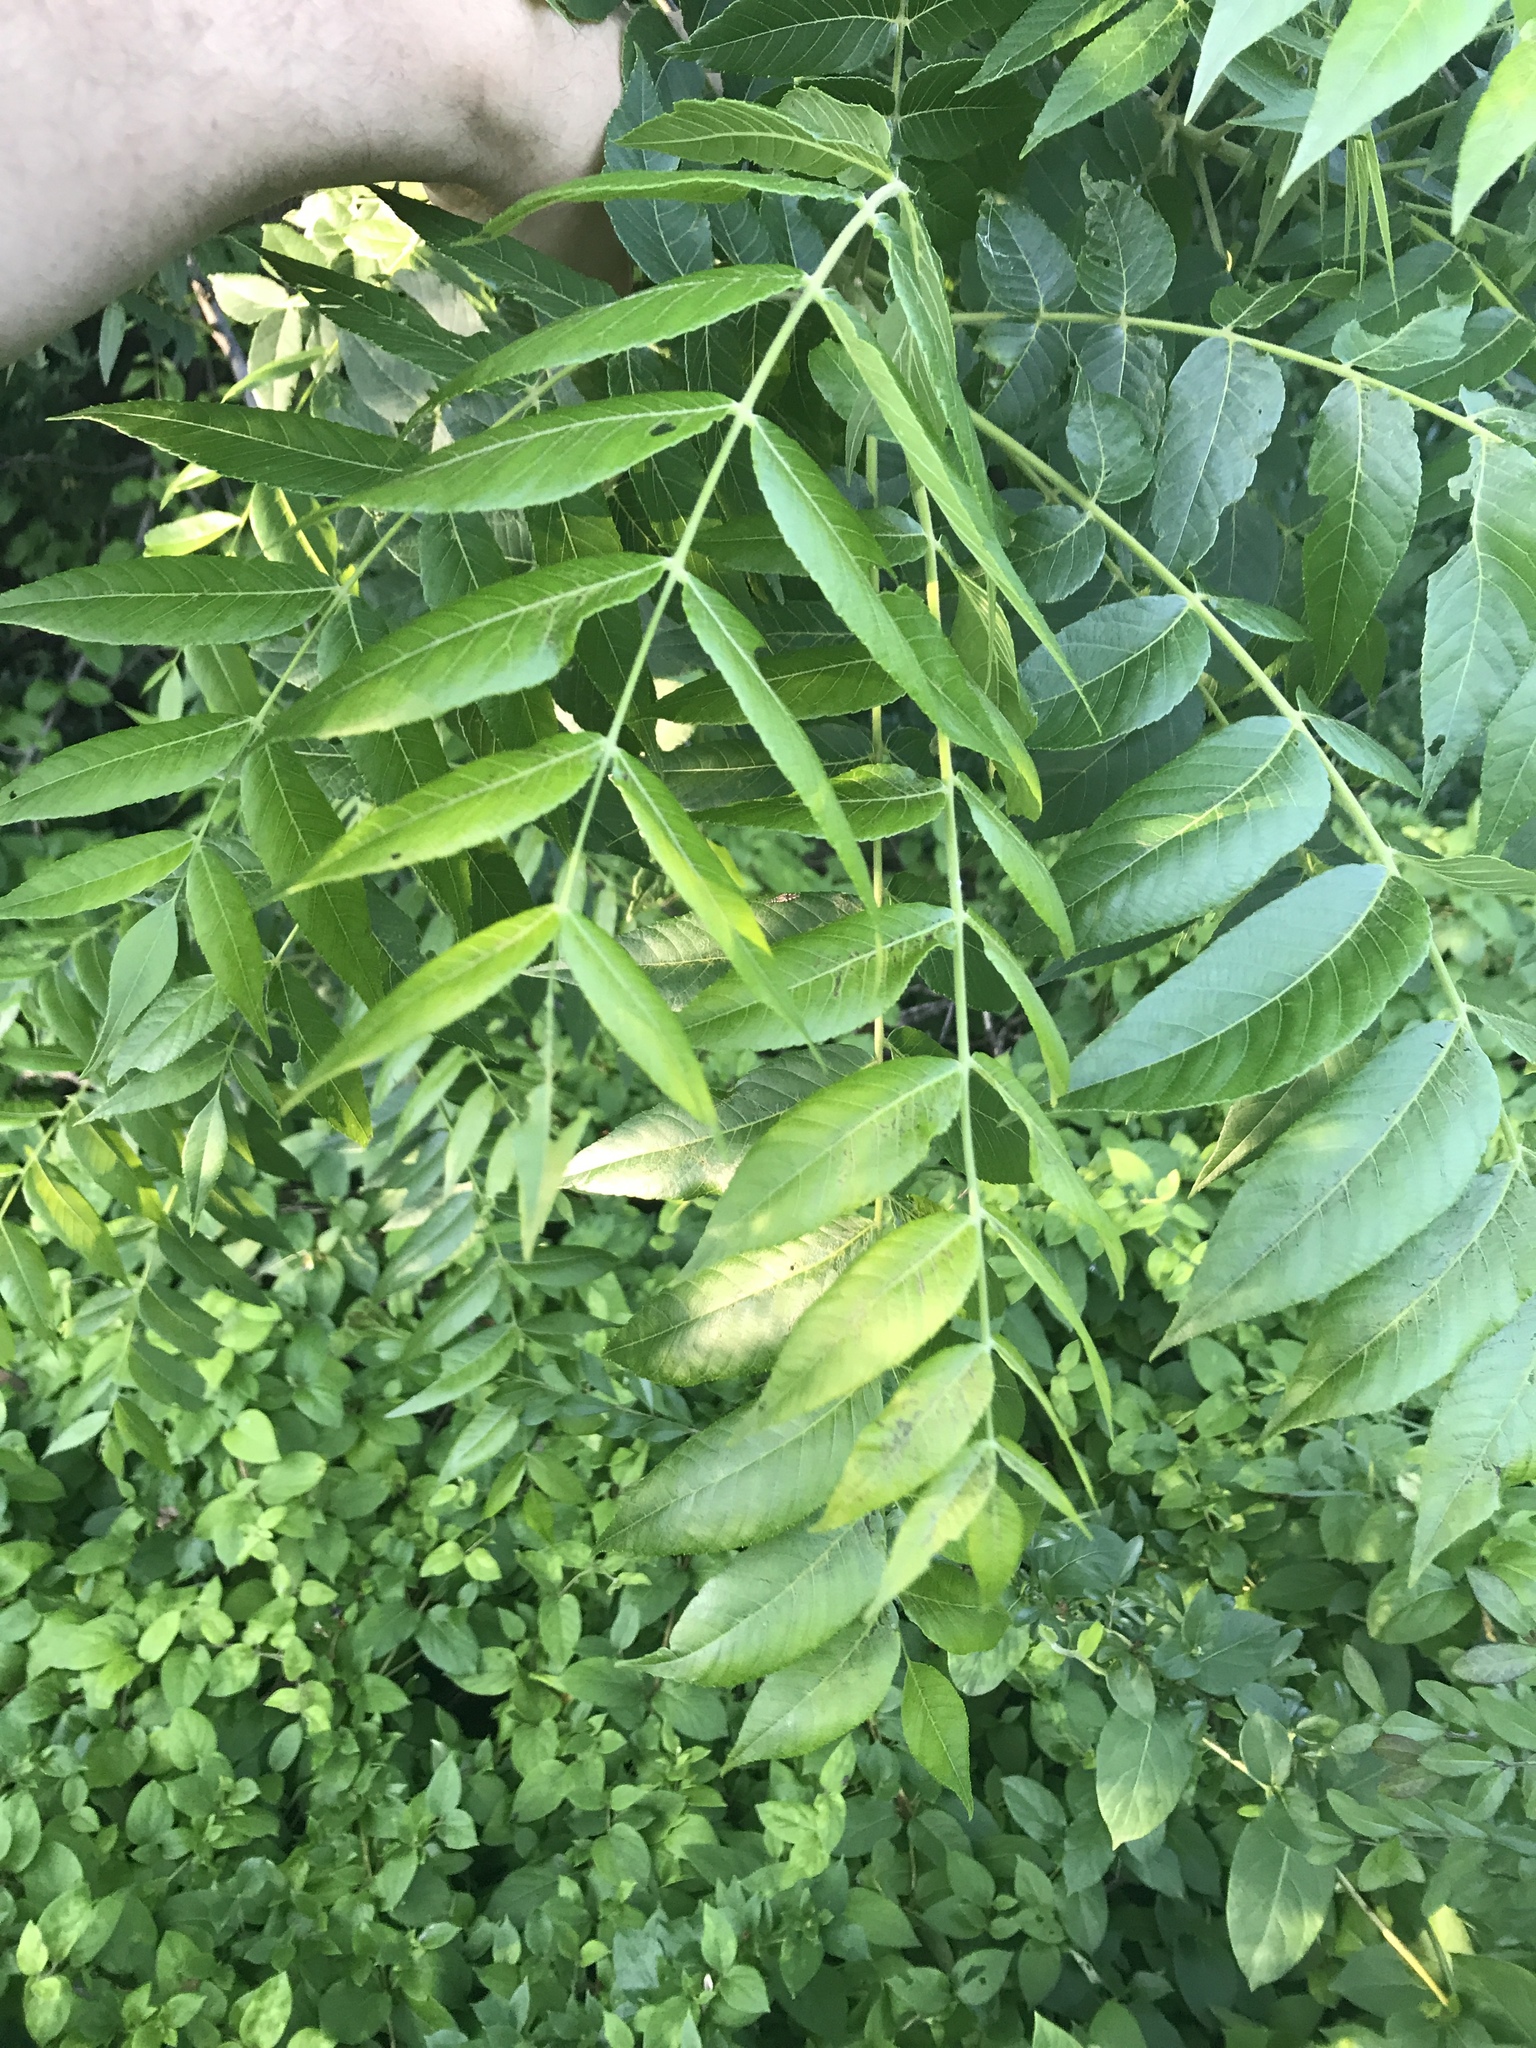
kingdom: Plantae
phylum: Tracheophyta
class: Magnoliopsida
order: Fagales
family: Juglandaceae
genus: Juglans
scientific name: Juglans nigra
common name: Black walnut
